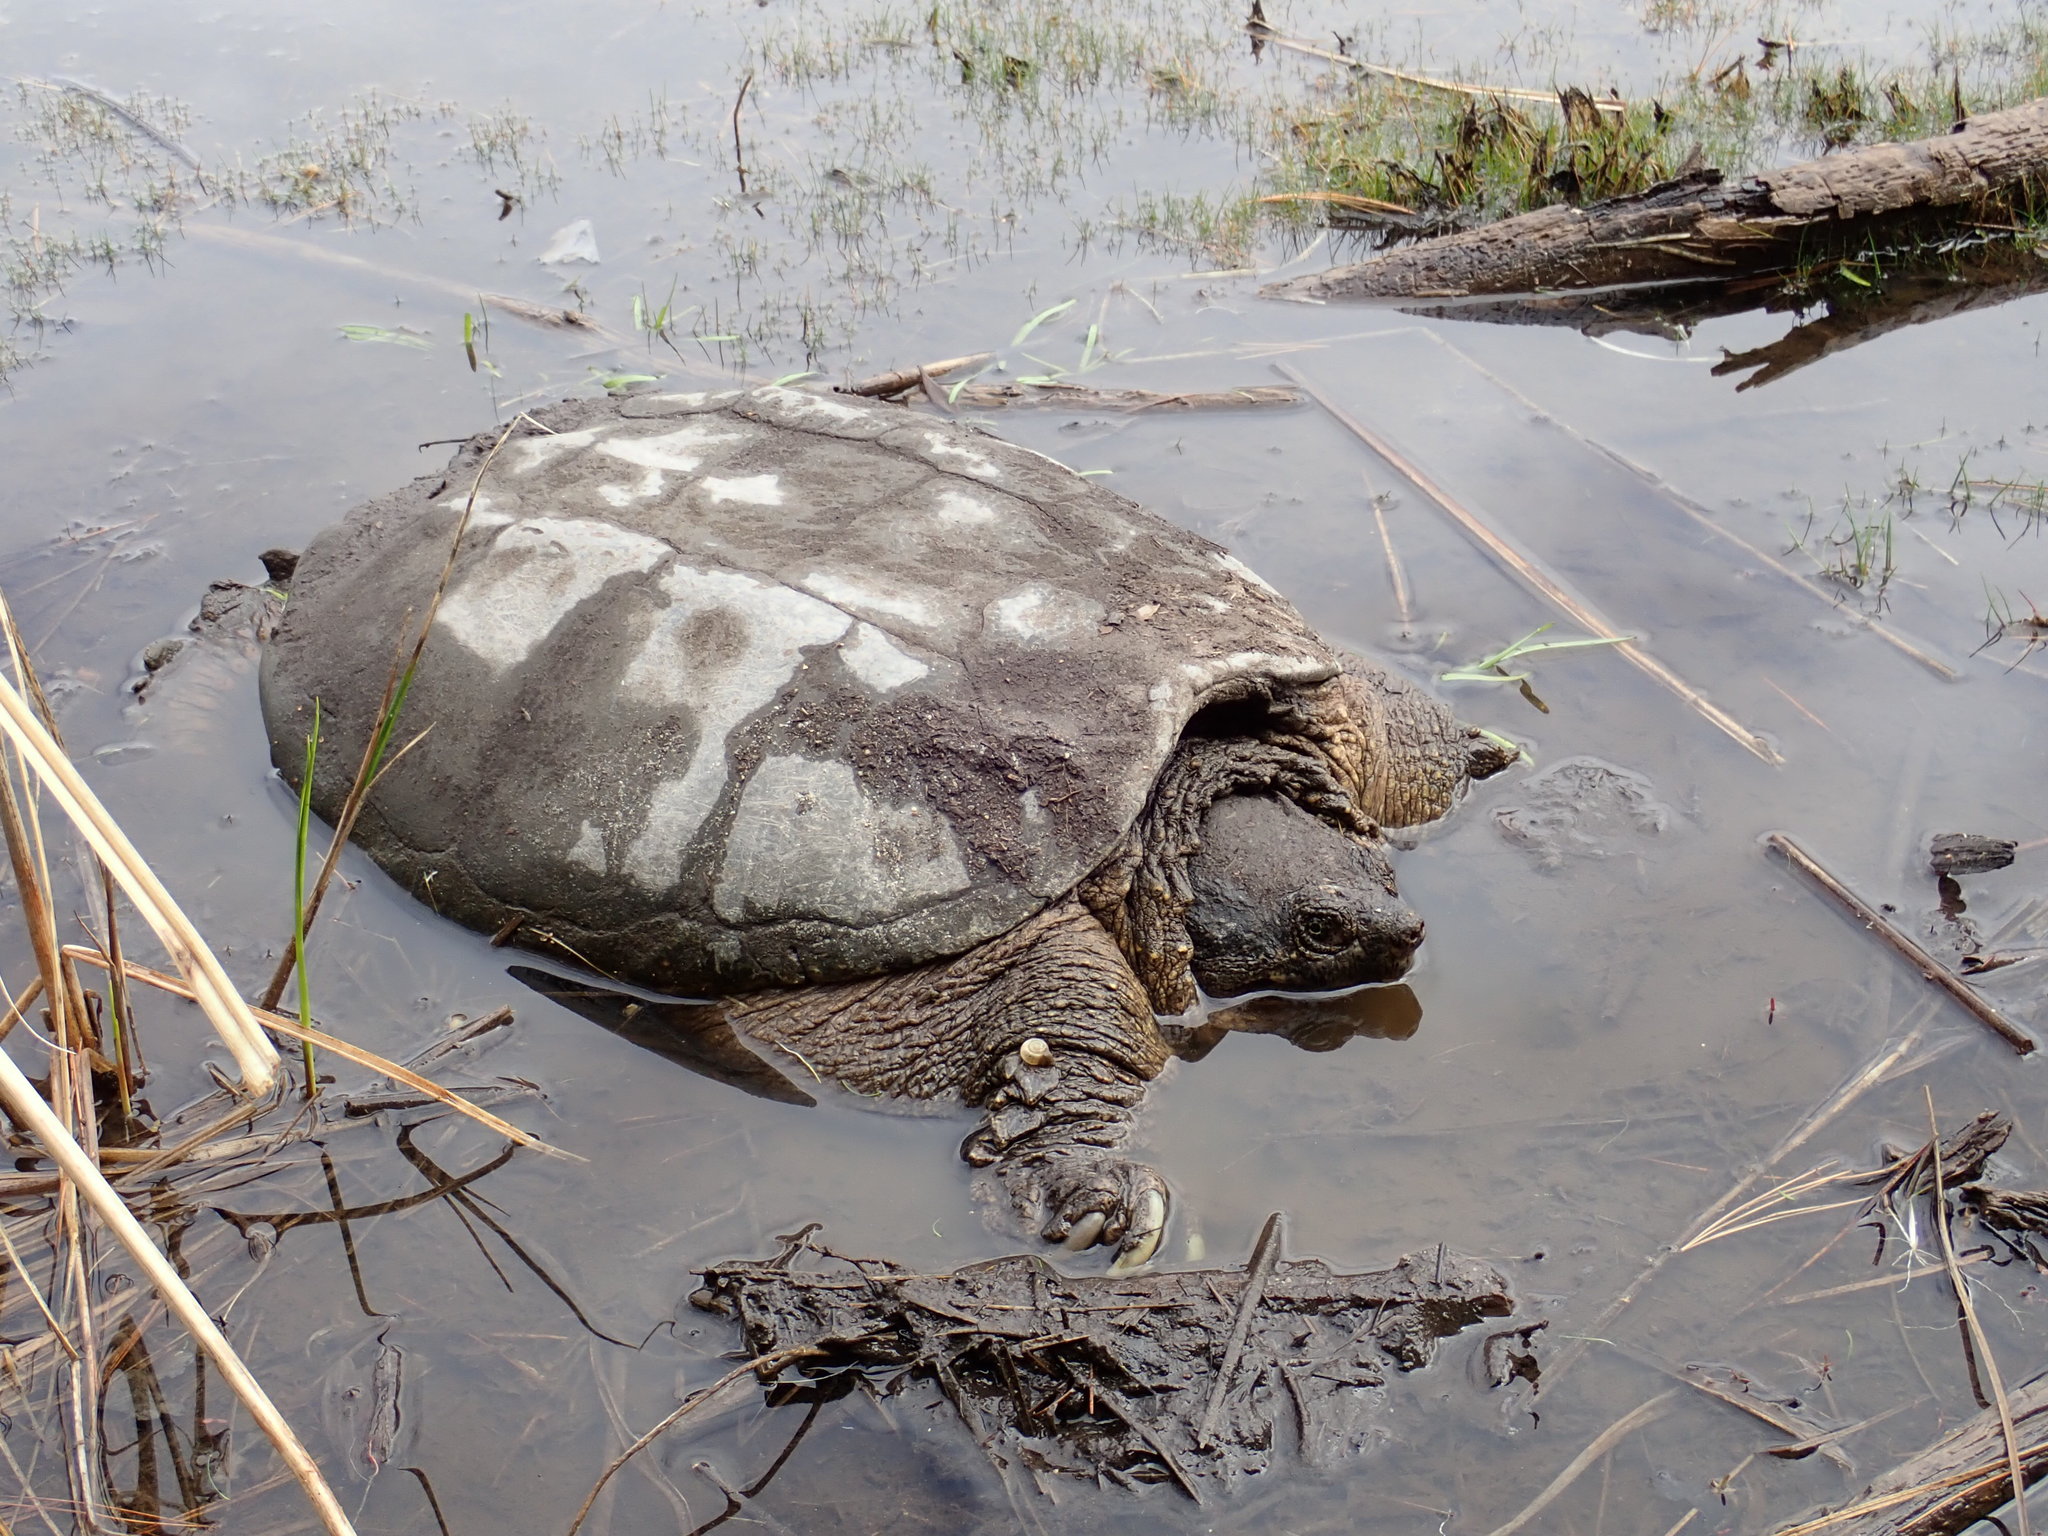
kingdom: Animalia
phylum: Chordata
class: Testudines
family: Chelydridae
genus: Chelydra
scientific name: Chelydra serpentina
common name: Common snapping turtle
